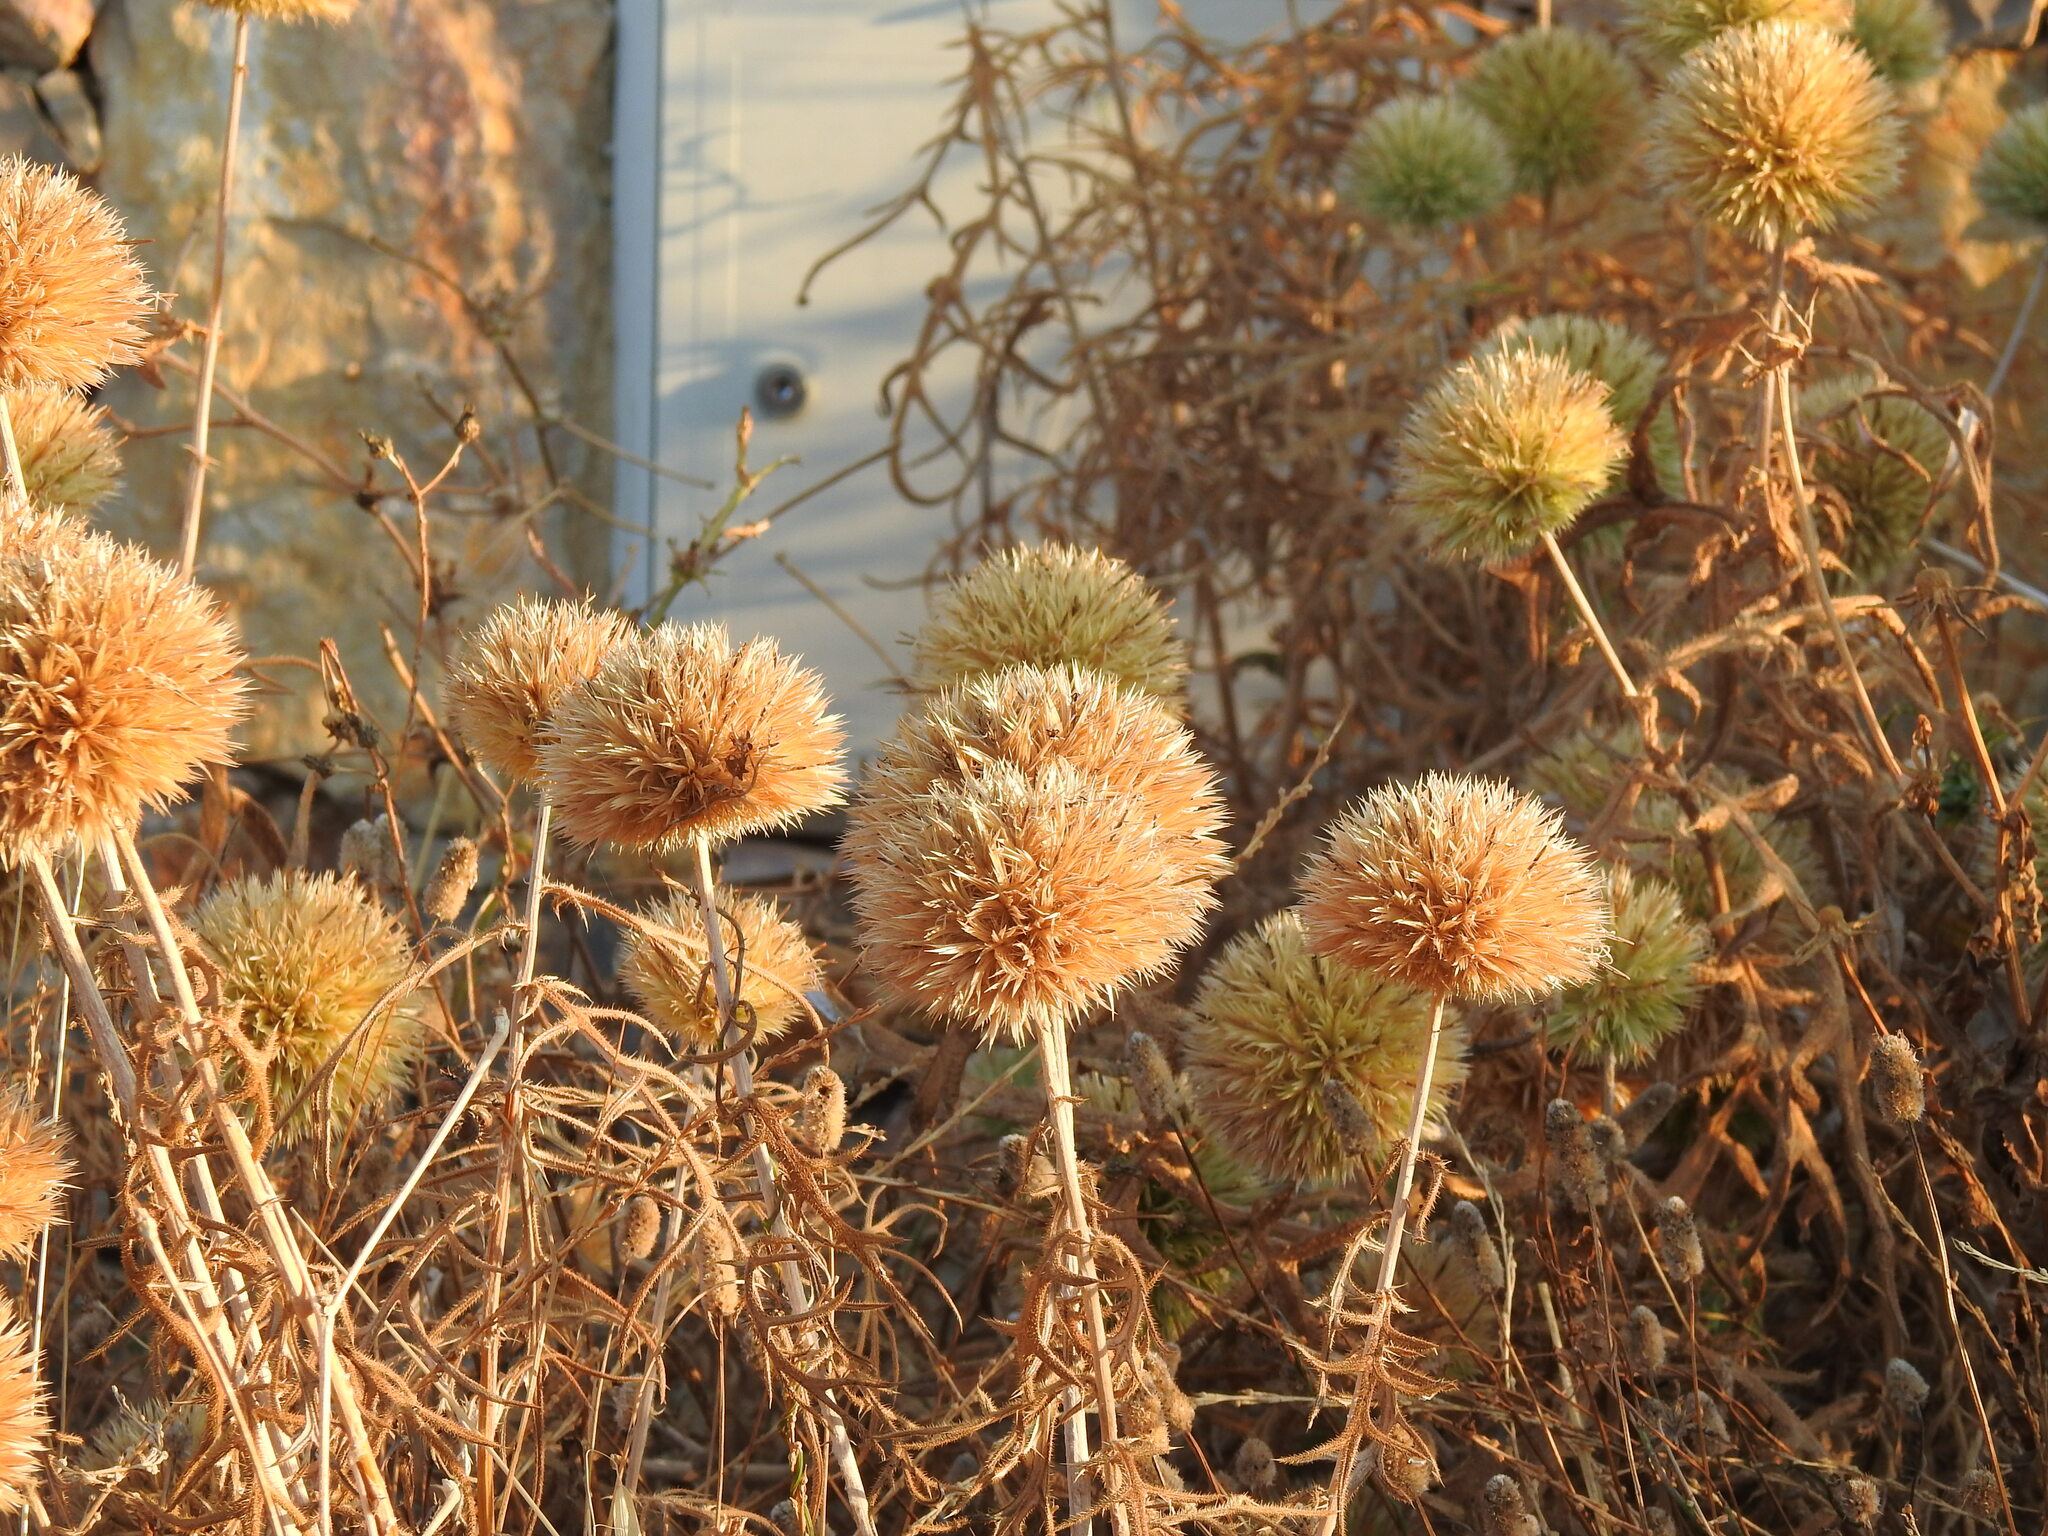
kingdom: Plantae
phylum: Tracheophyta
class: Magnoliopsida
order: Asterales
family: Asteraceae
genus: Echinops
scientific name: Echinops strigosus
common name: Rough-leaf globe thistle
